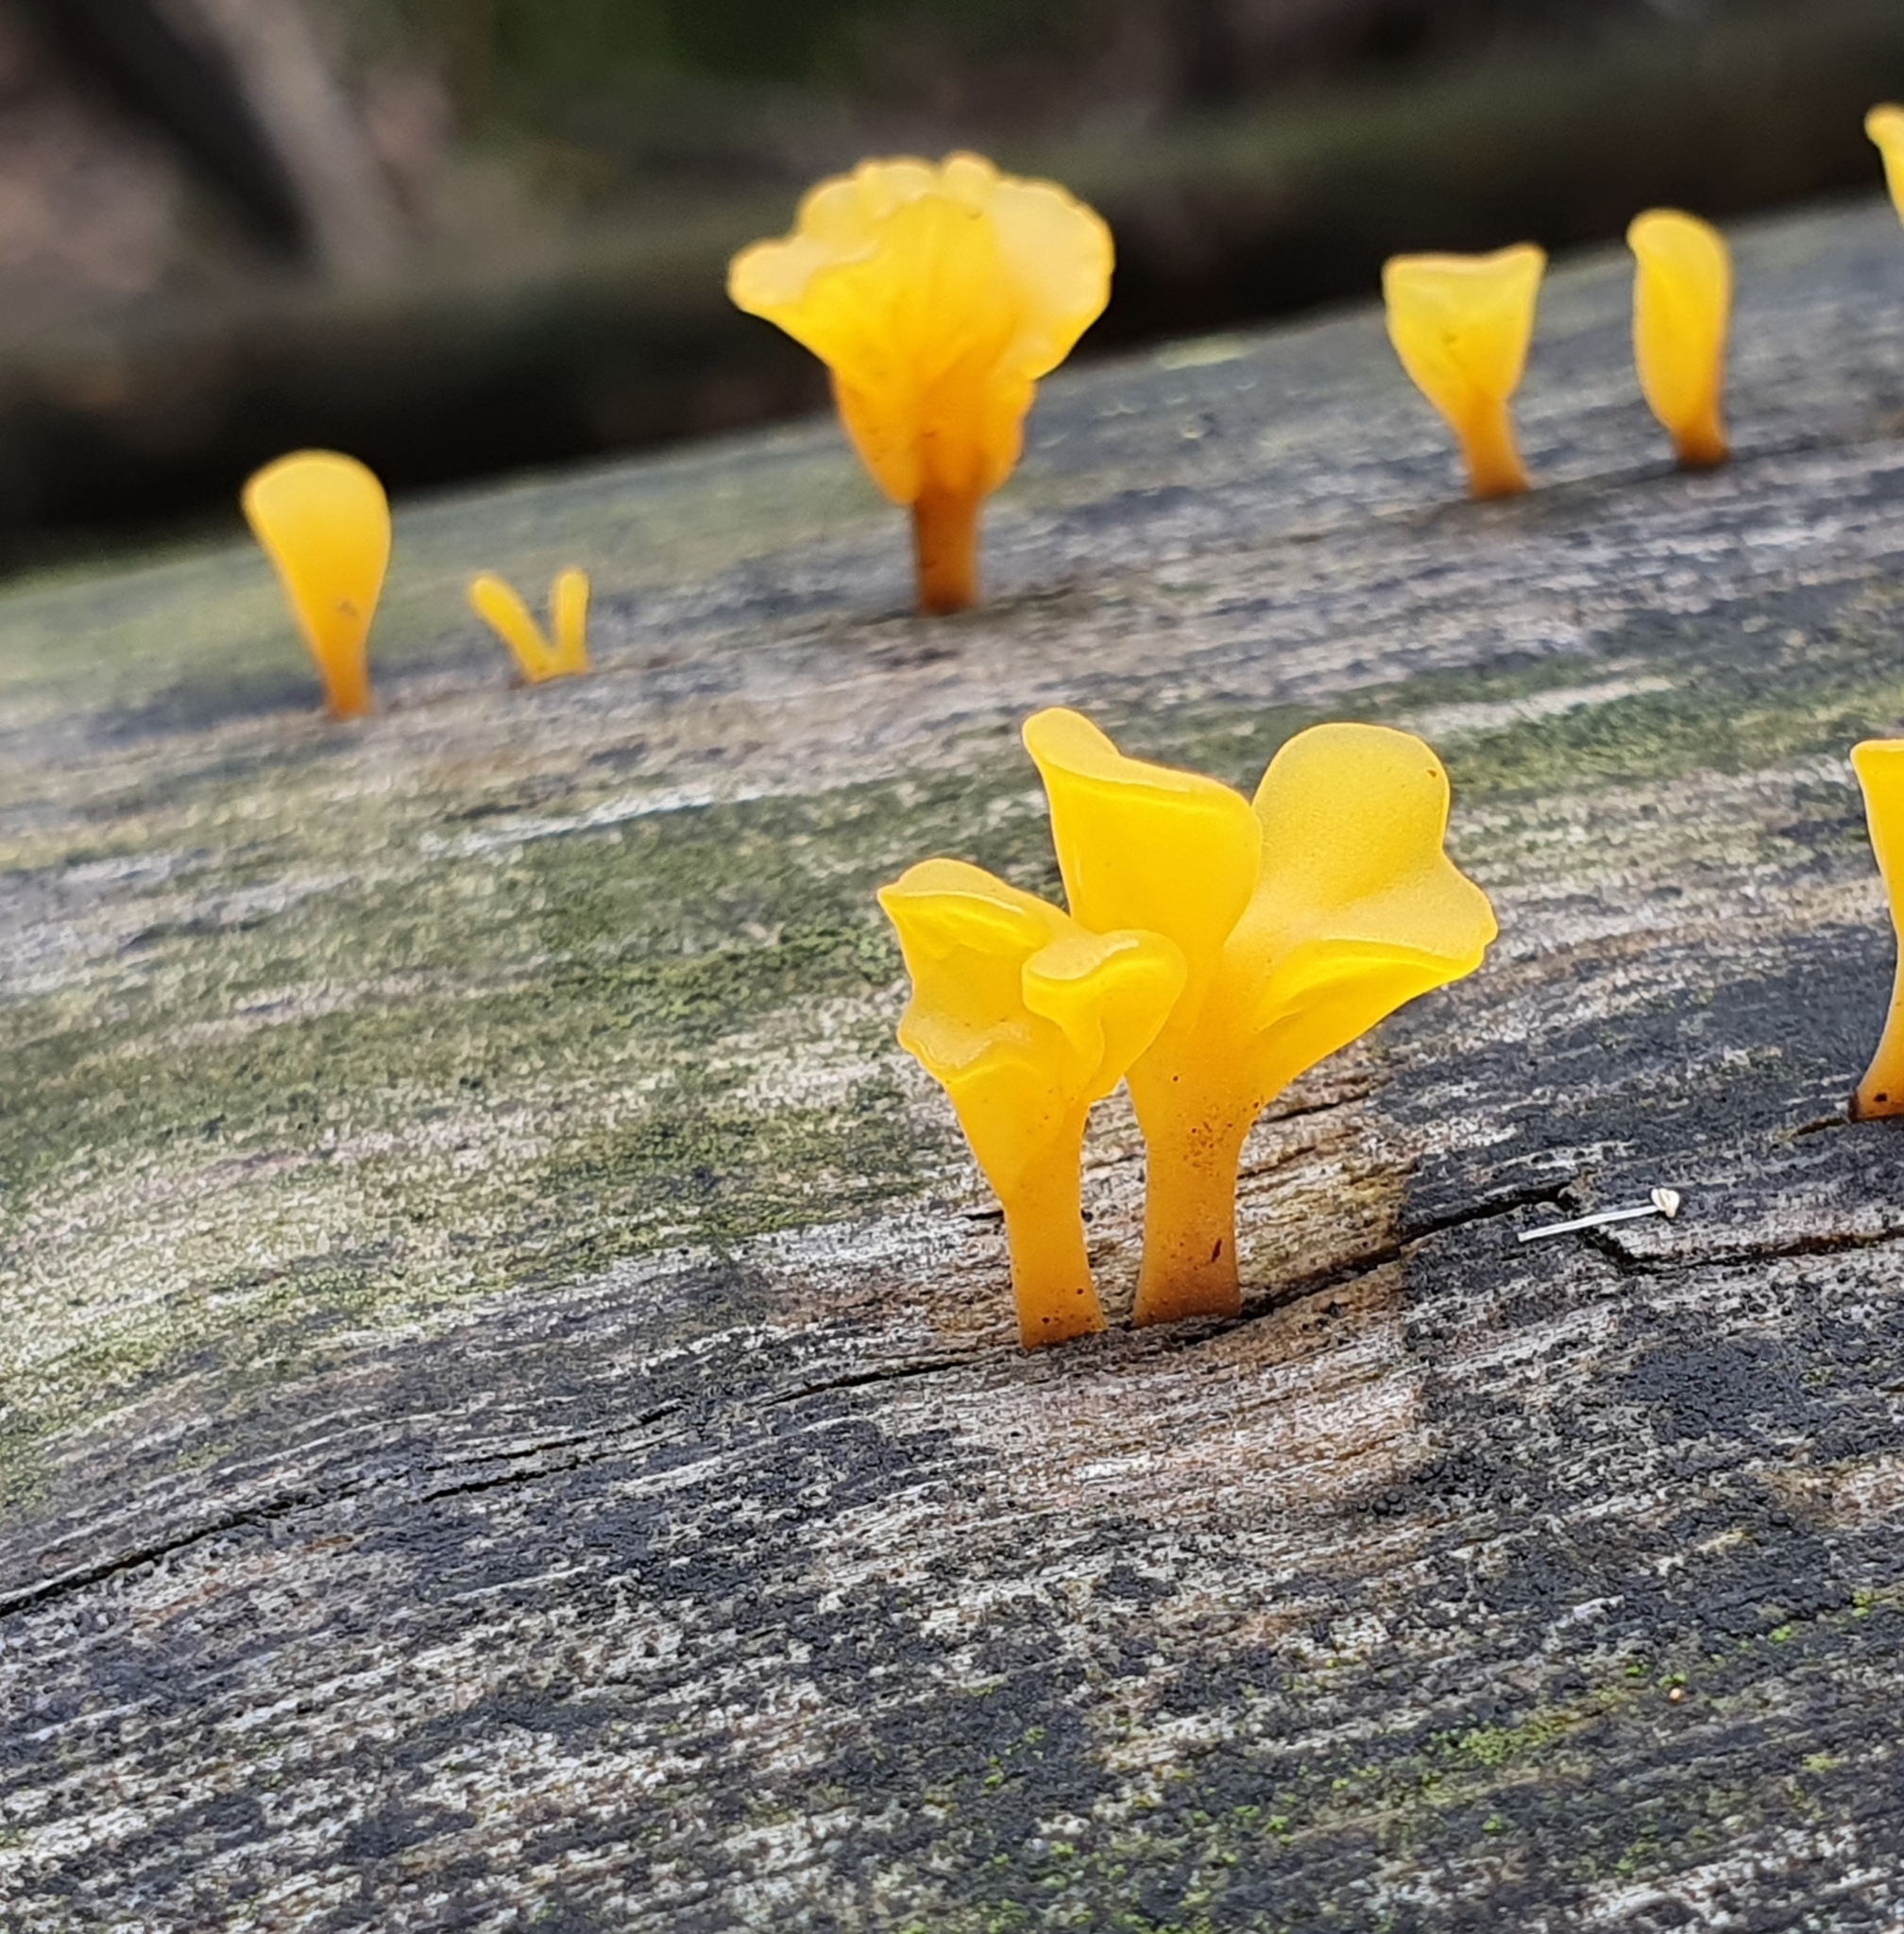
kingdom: Fungi
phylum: Basidiomycota
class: Dacrymycetes
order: Dacrymycetales
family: Dacrymycetaceae
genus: Dacrymyces
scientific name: Dacrymyces spathularius
